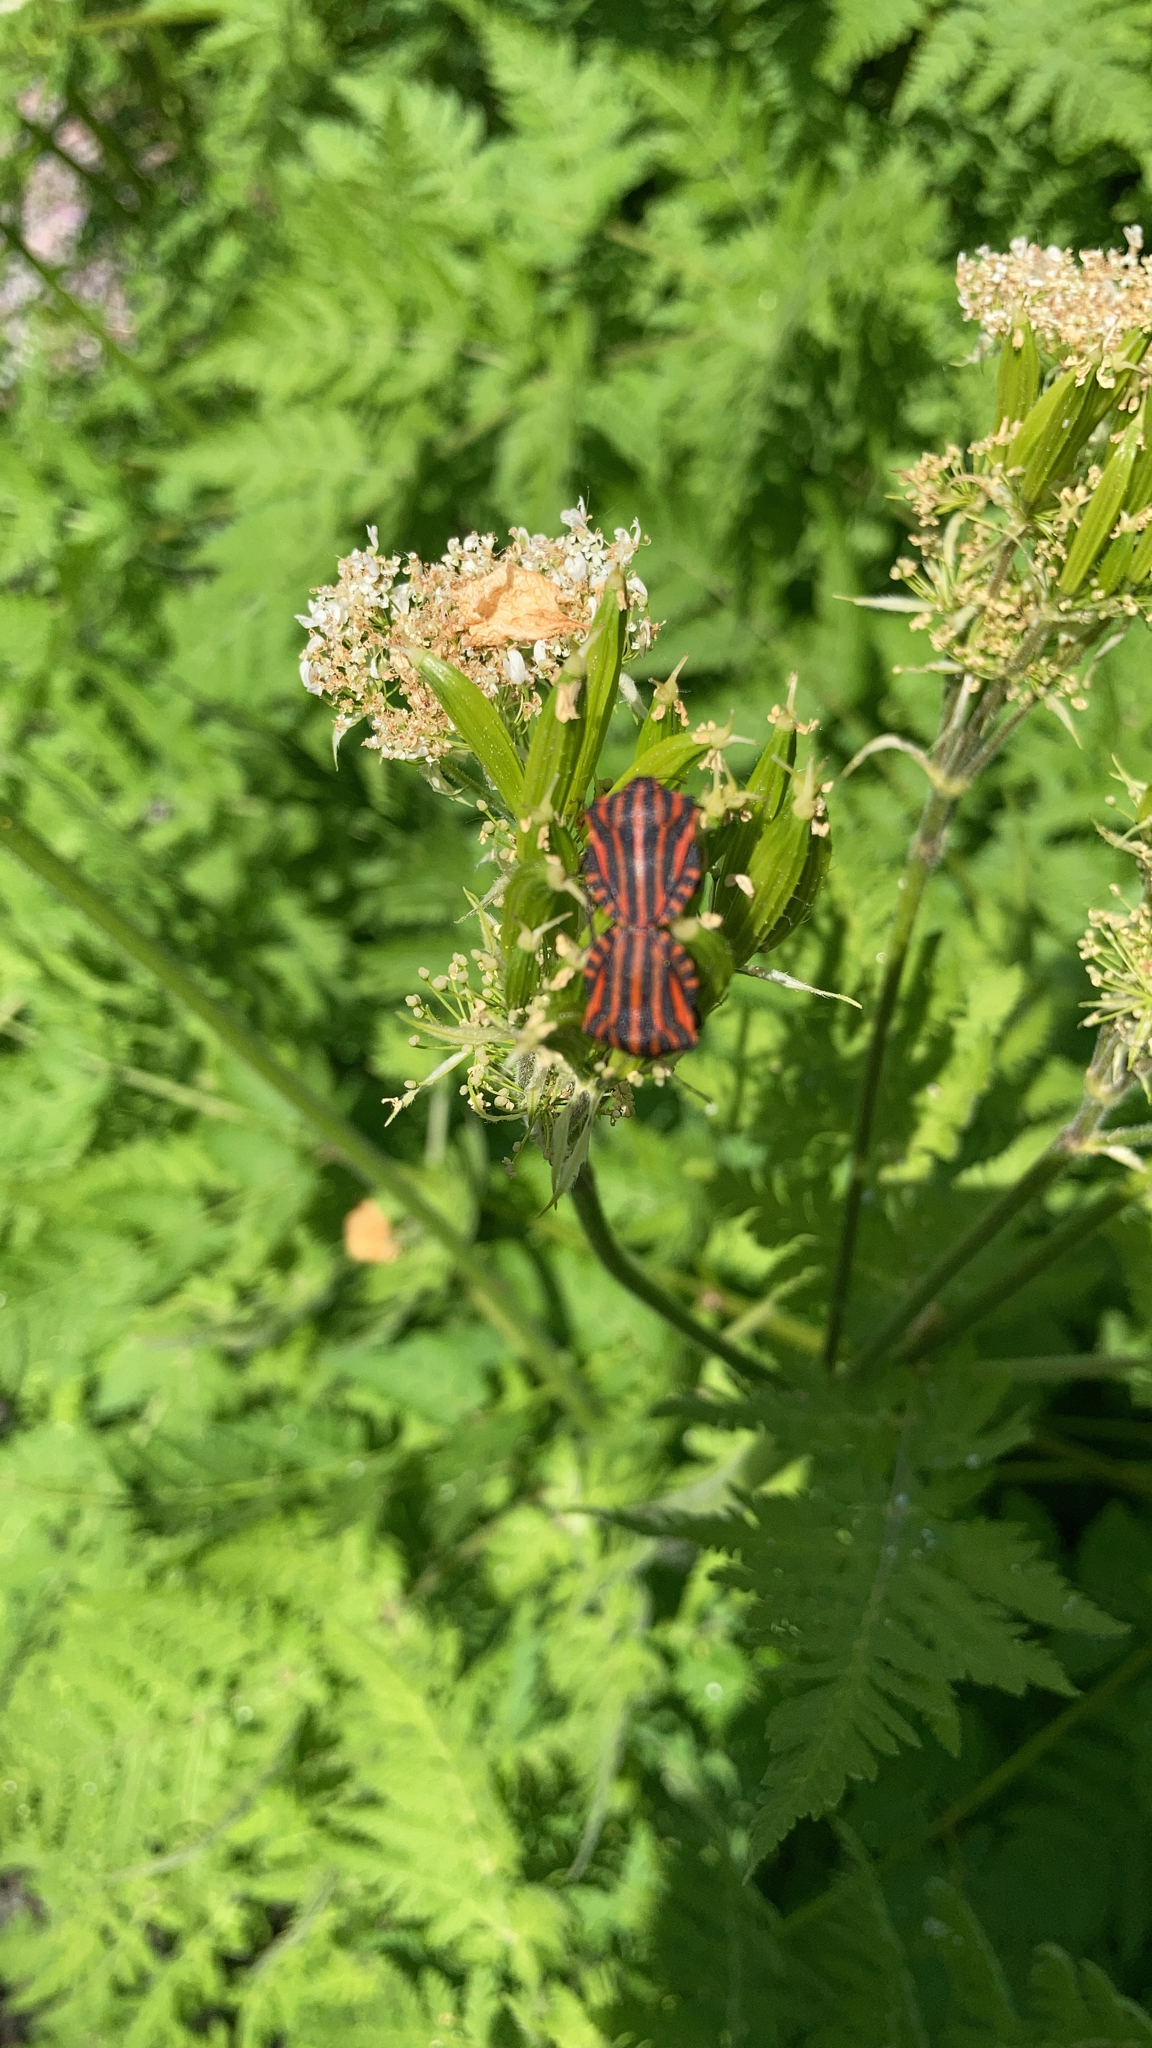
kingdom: Animalia
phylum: Arthropoda
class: Insecta
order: Hemiptera
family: Pentatomidae
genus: Graphosoma
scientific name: Graphosoma italicum
